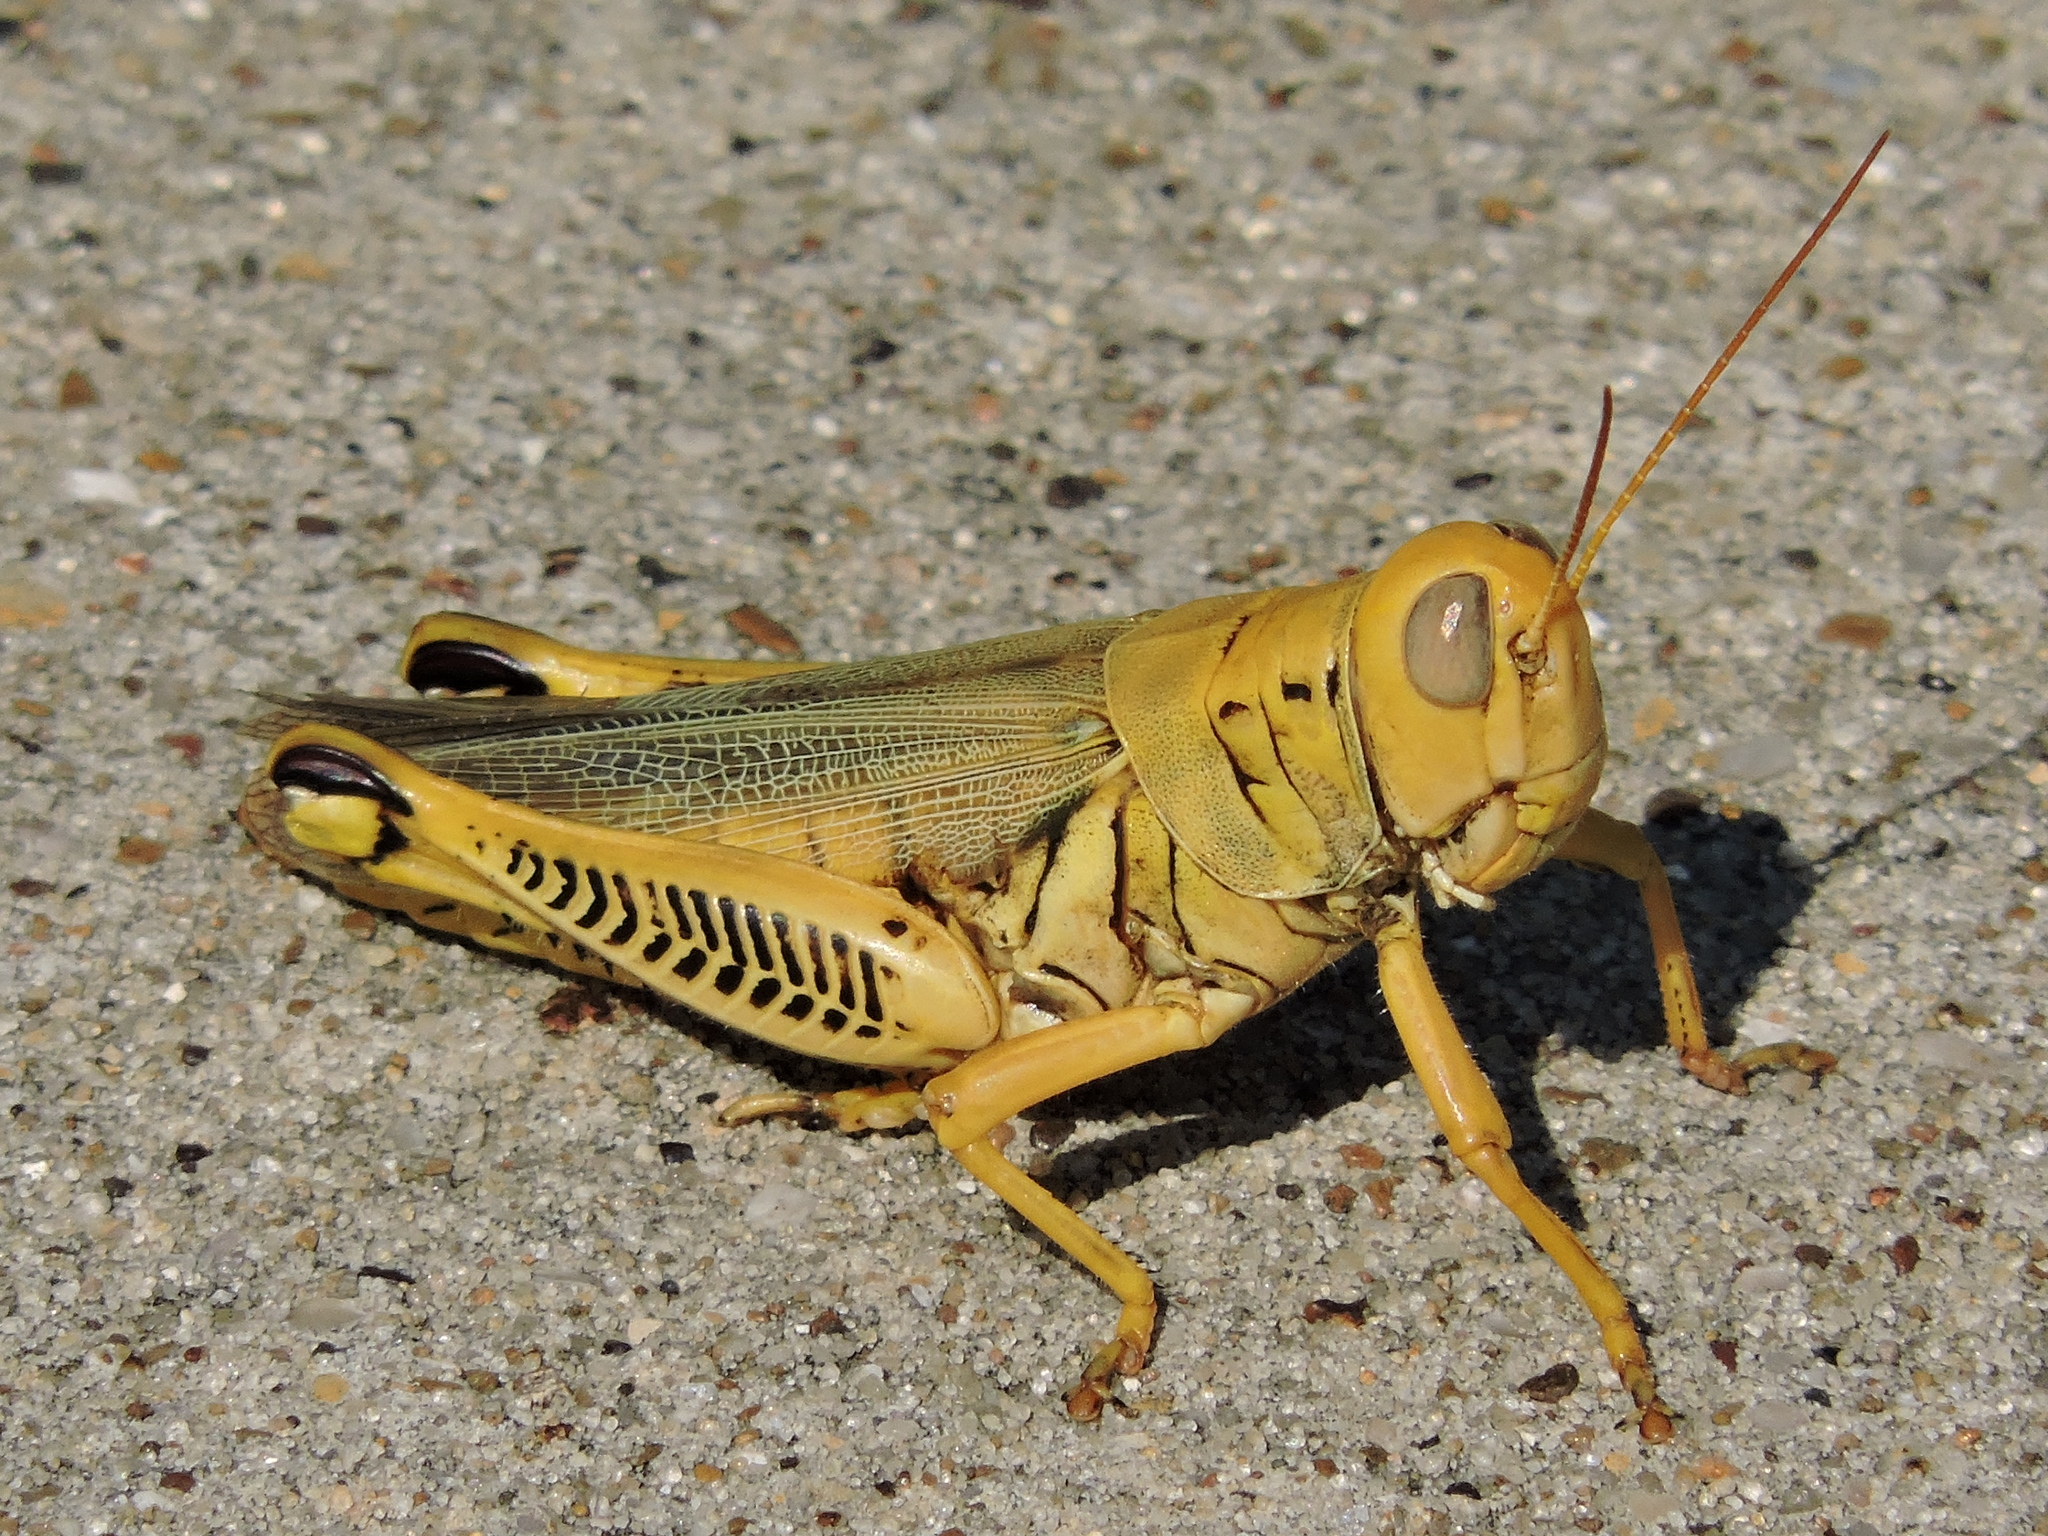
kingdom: Animalia
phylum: Arthropoda
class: Insecta
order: Orthoptera
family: Acrididae
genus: Melanoplus
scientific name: Melanoplus differentialis
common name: Differential grasshopper
